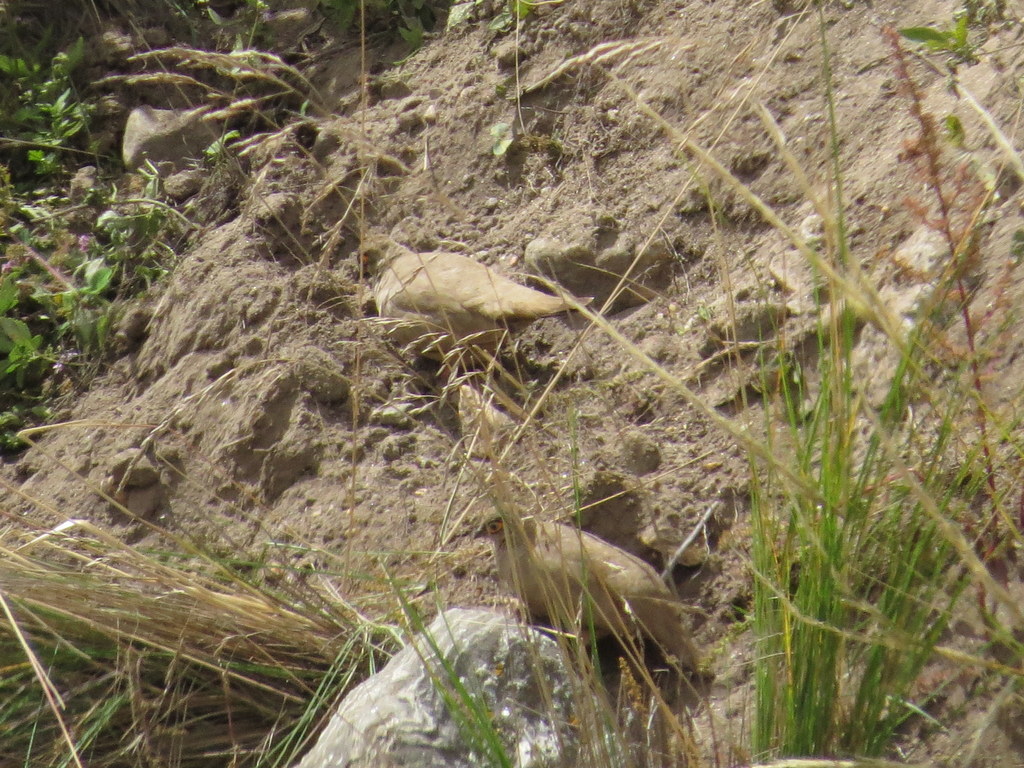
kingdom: Animalia
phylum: Chordata
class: Aves
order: Columbiformes
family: Columbidae
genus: Metriopelia
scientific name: Metriopelia morenoi
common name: Moreno's ground dove
